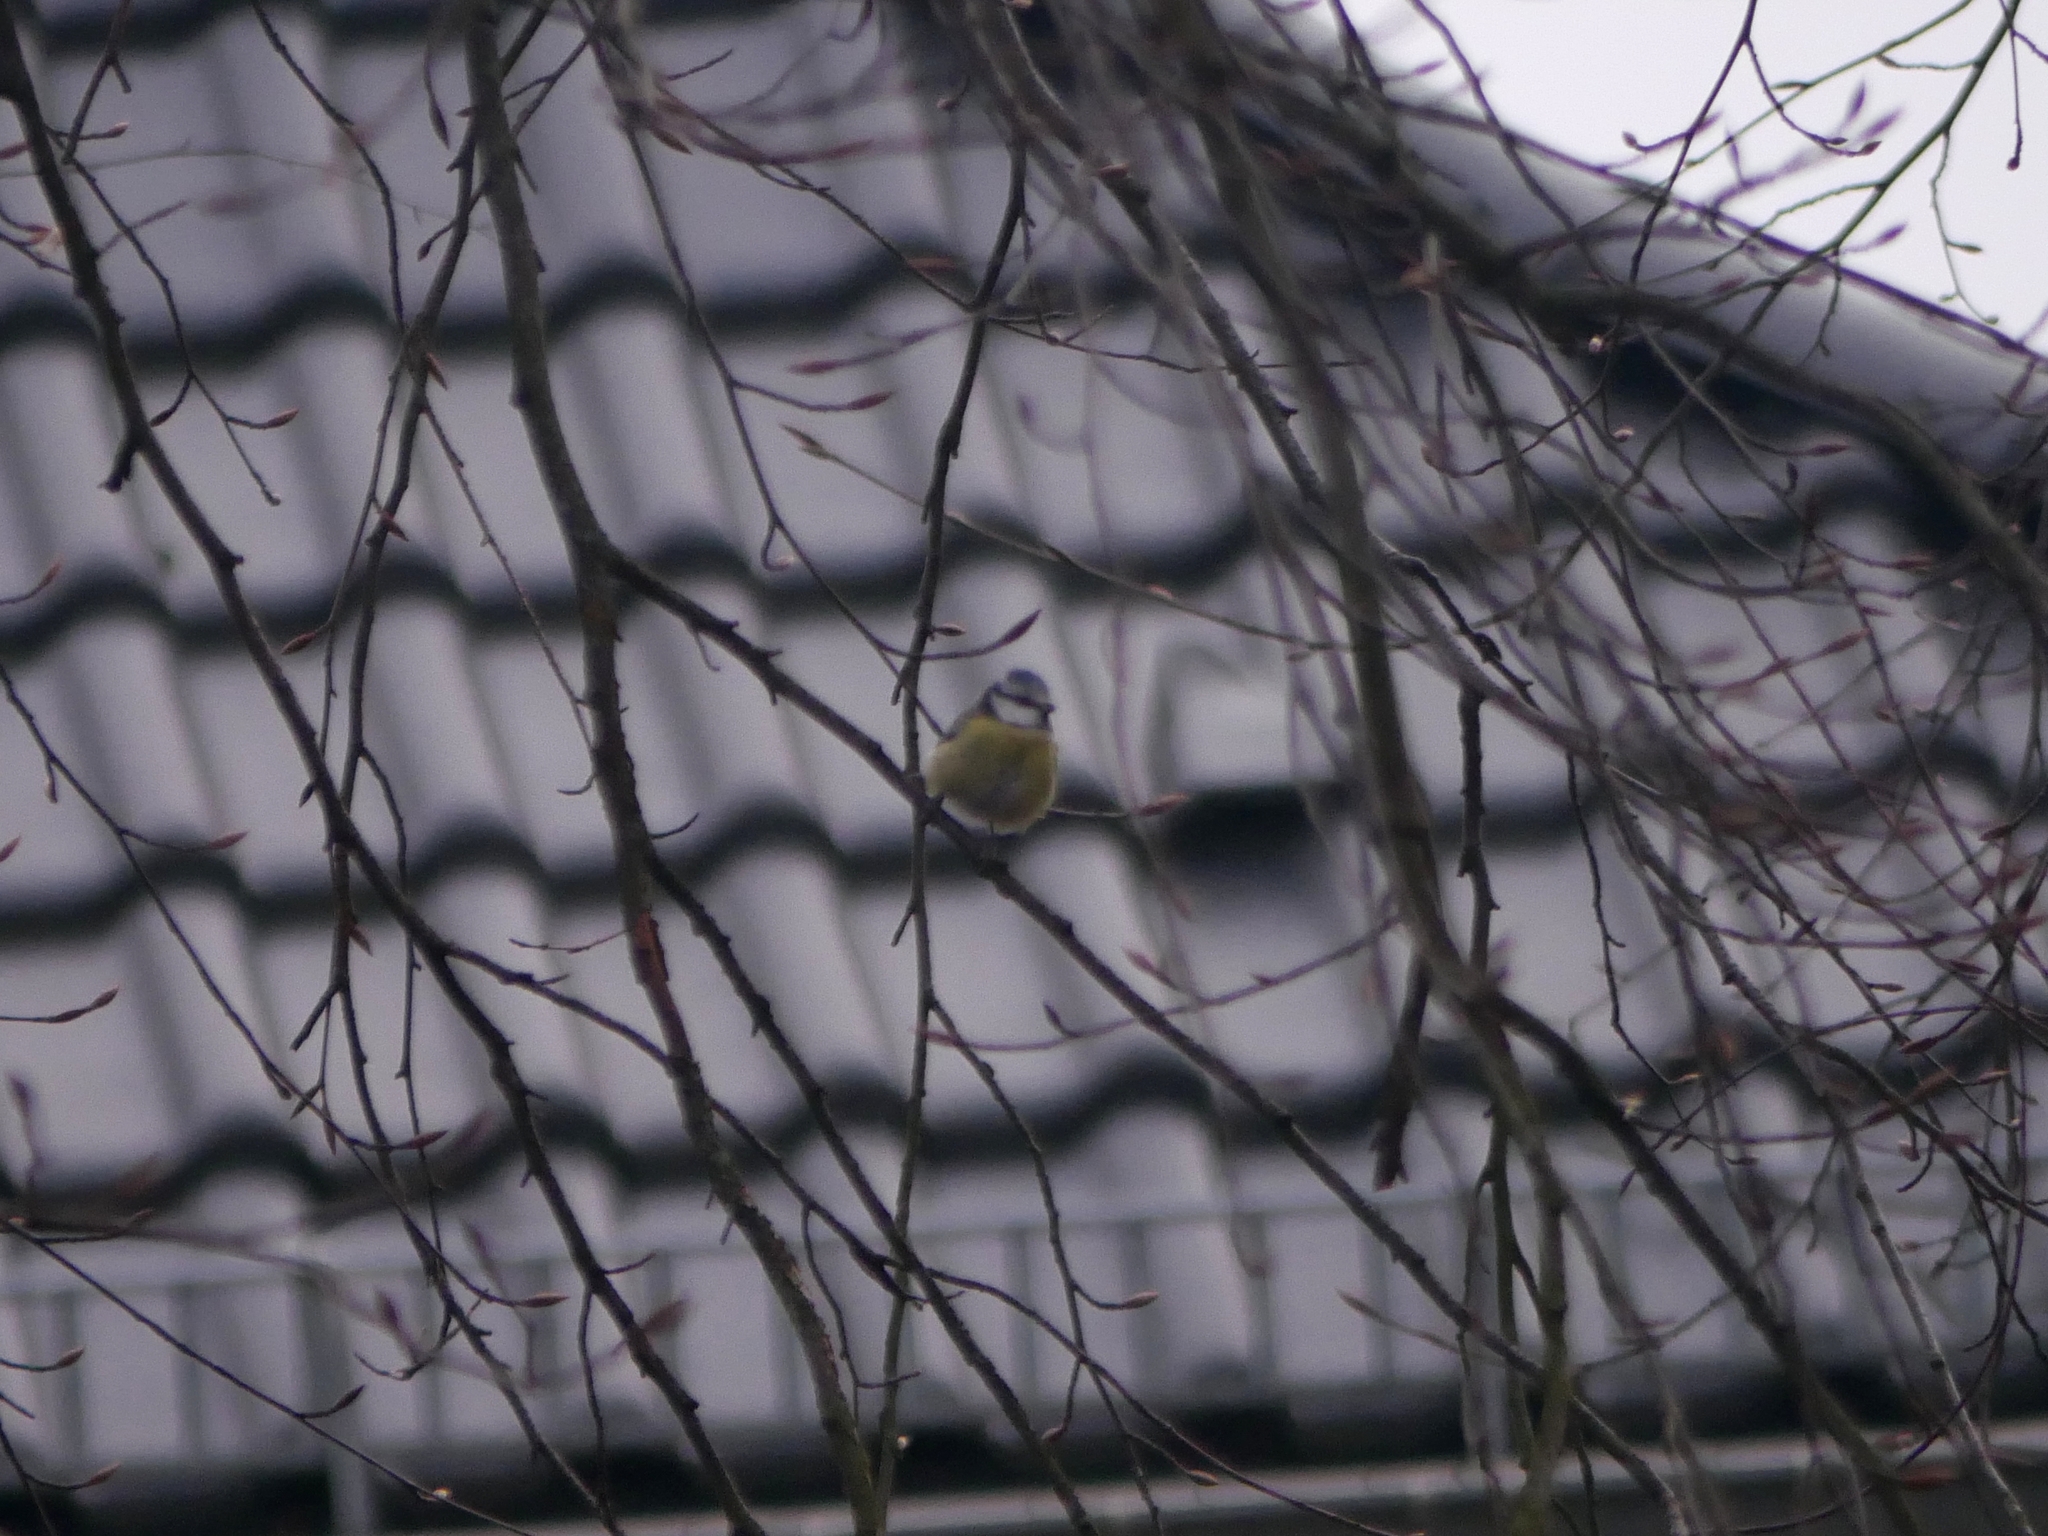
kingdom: Animalia
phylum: Chordata
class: Aves
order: Passeriformes
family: Paridae
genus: Cyanistes
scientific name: Cyanistes caeruleus
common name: Eurasian blue tit
